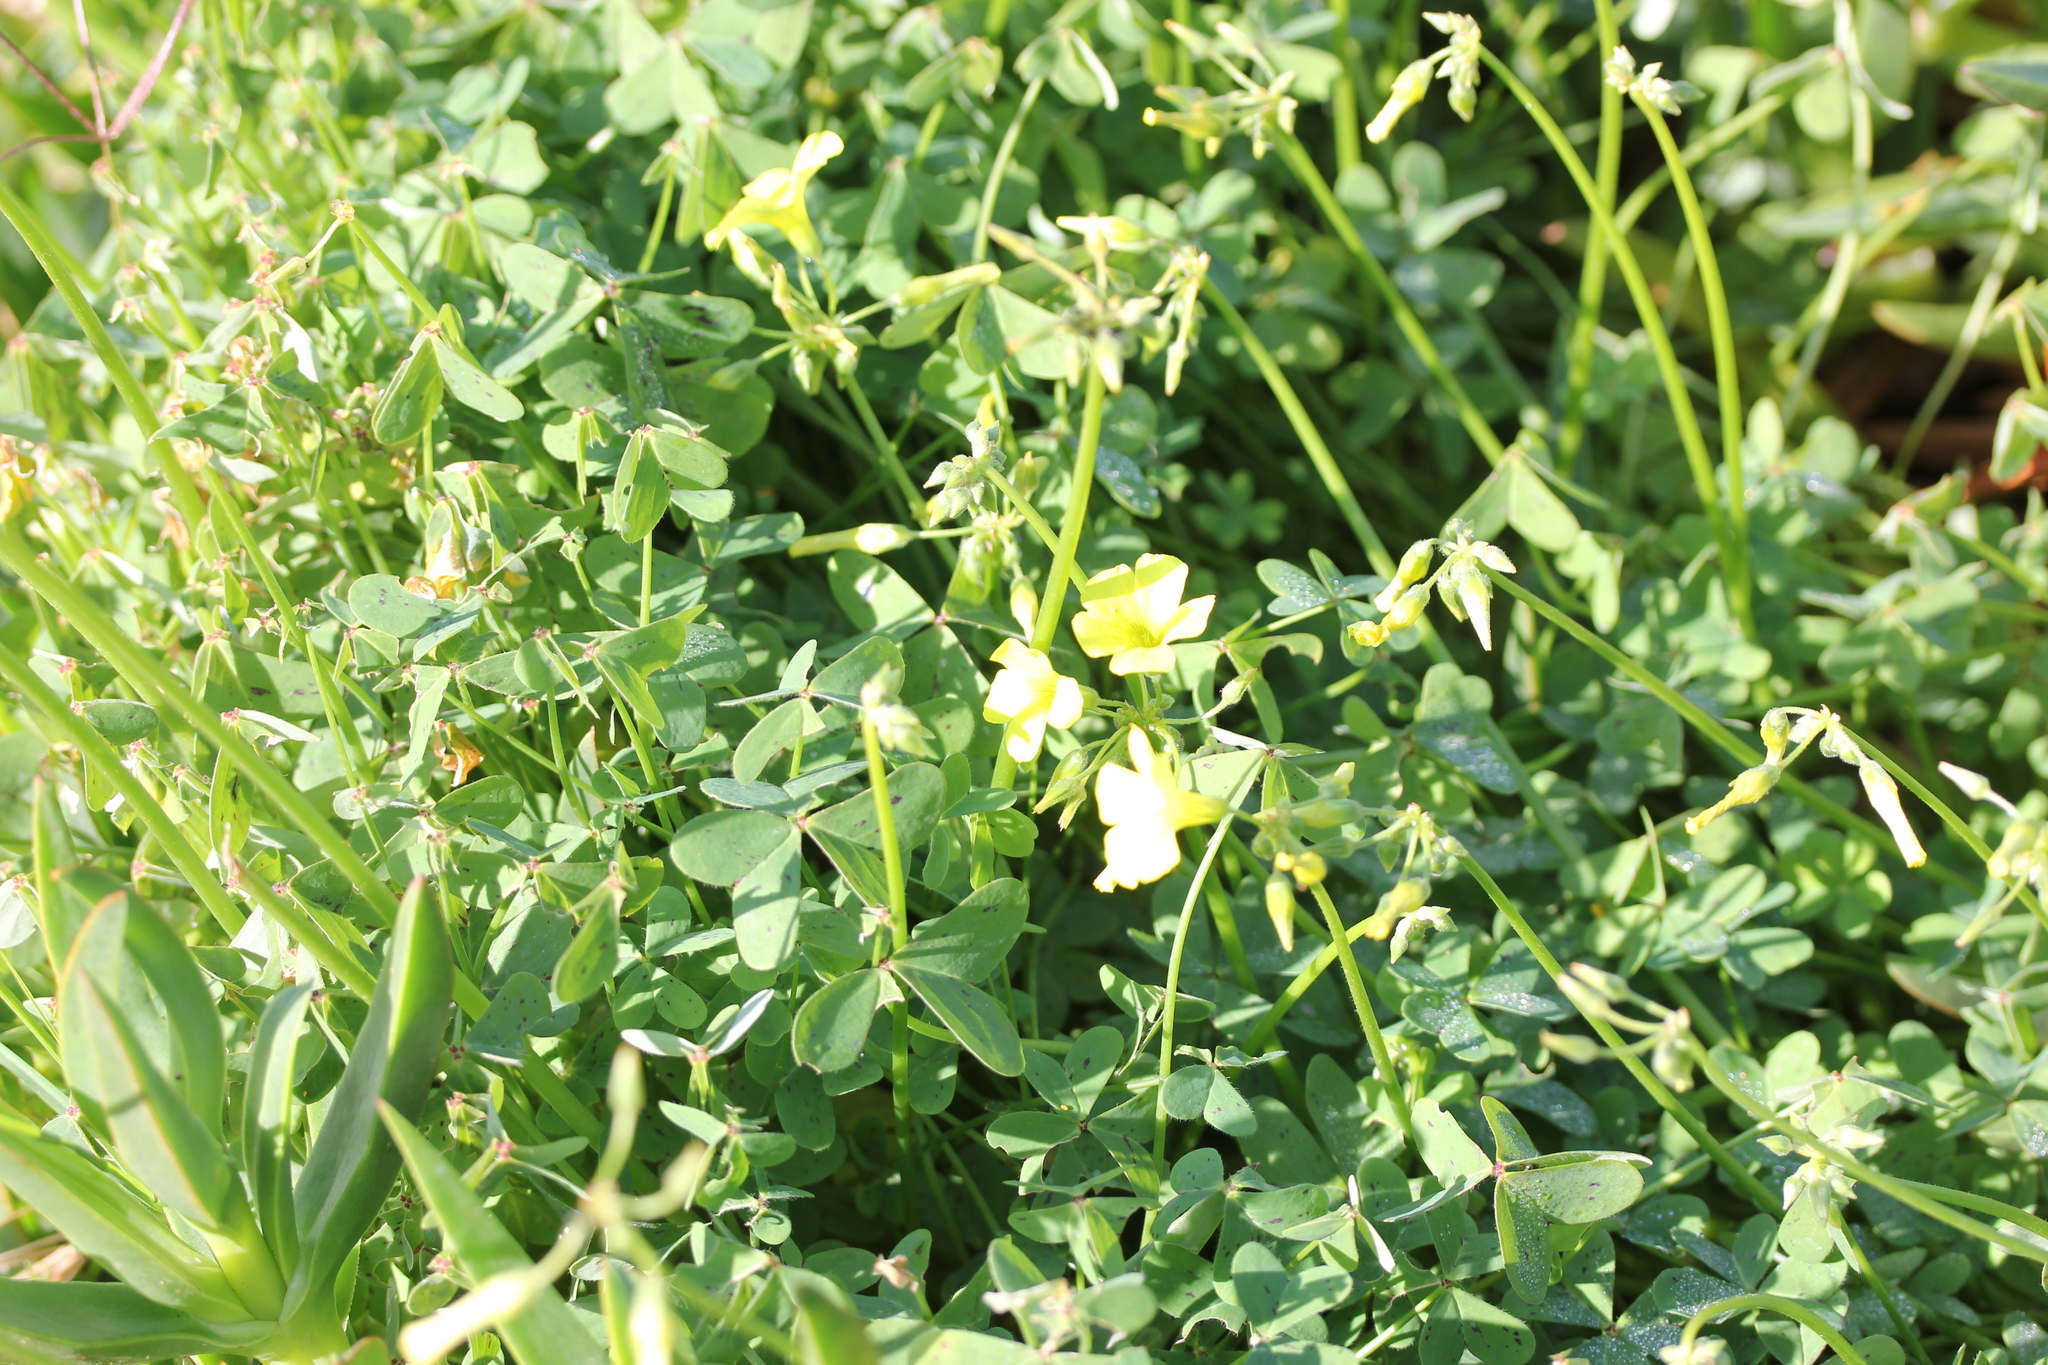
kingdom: Plantae
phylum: Tracheophyta
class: Magnoliopsida
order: Oxalidales
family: Oxalidaceae
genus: Oxalis
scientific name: Oxalis pes-caprae
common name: Bermuda-buttercup
